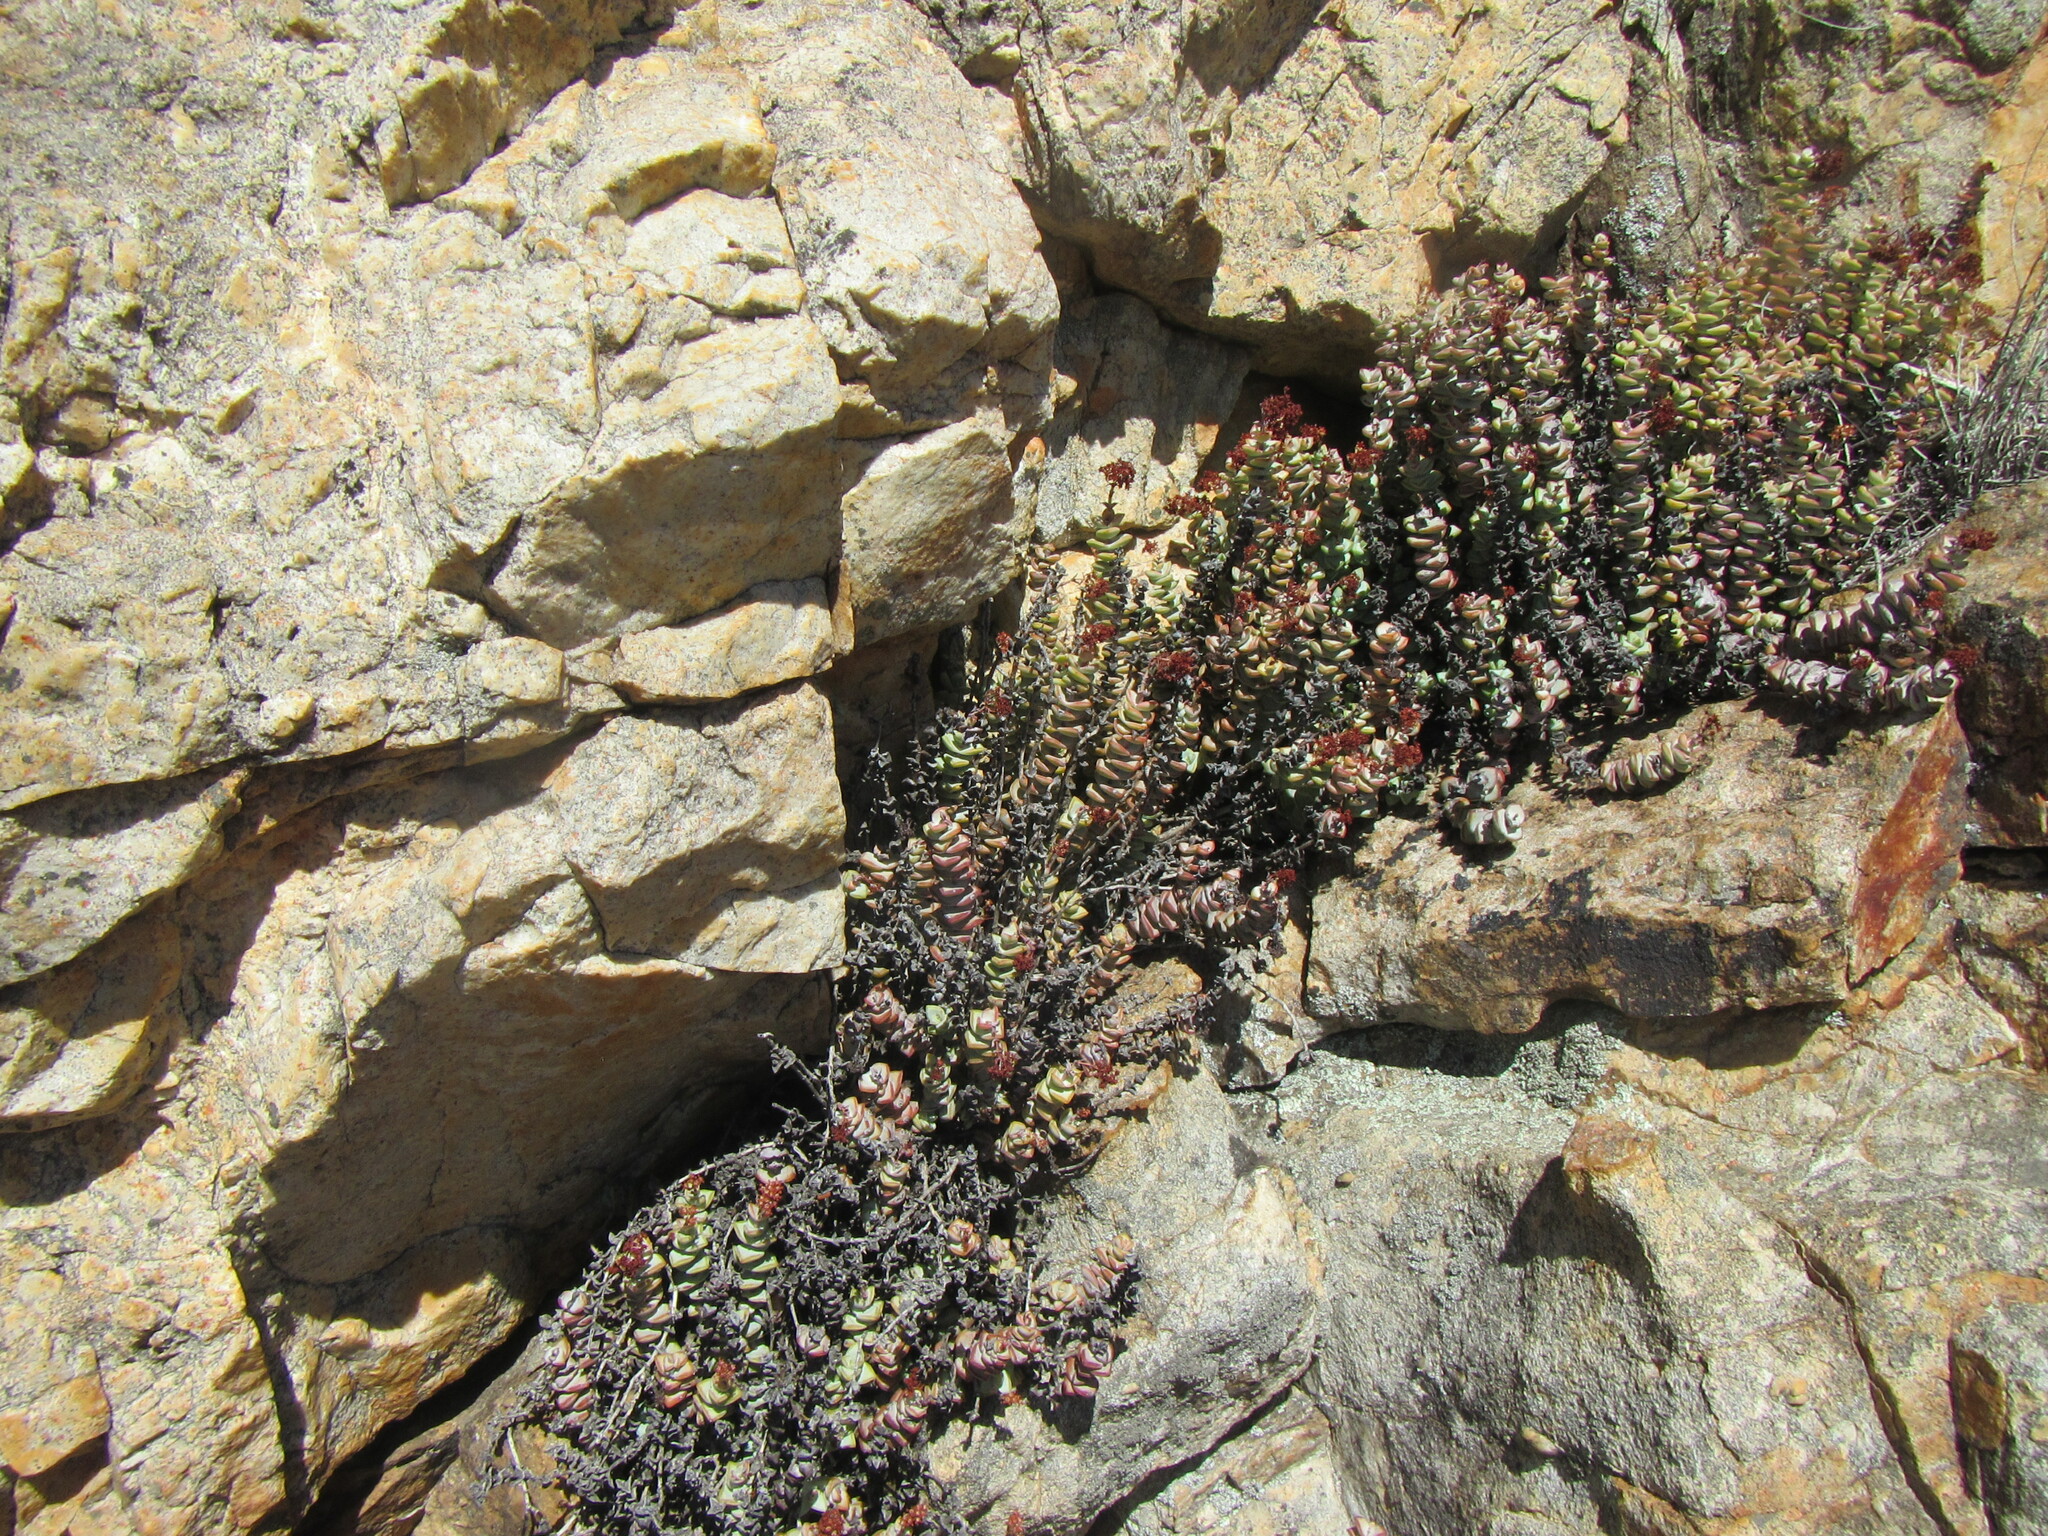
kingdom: Plantae
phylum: Tracheophyta
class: Magnoliopsida
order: Saxifragales
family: Crassulaceae
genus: Crassula
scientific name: Crassula rupestris
